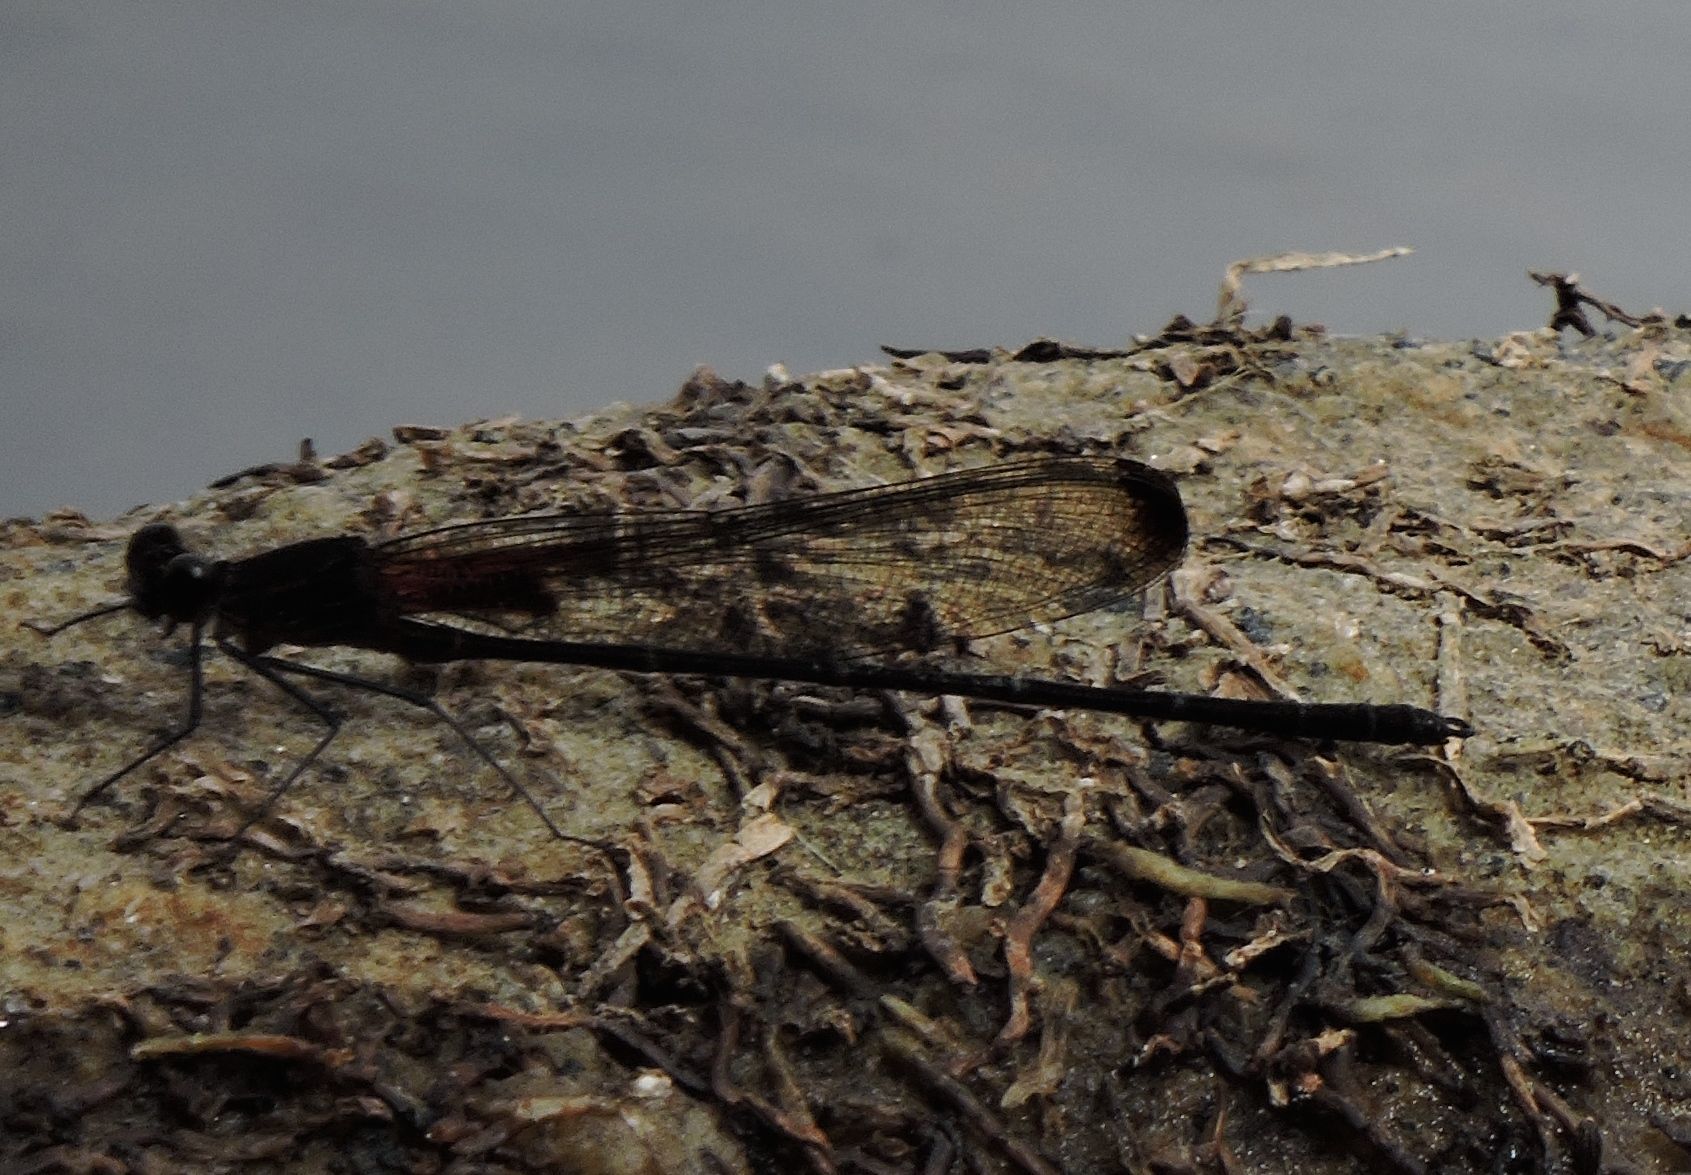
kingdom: Animalia
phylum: Arthropoda
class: Insecta
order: Odonata
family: Calopterygidae
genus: Hetaerina
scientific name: Hetaerina titia
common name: Smoky rubyspot
